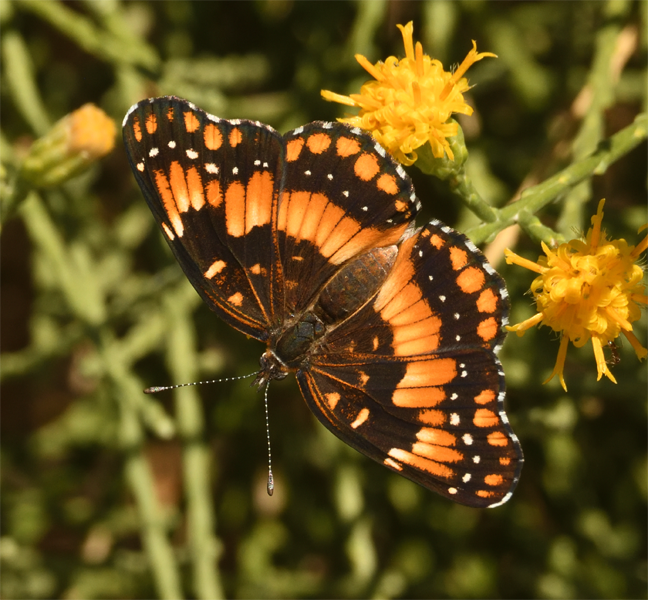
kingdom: Animalia
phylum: Arthropoda
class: Insecta
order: Lepidoptera
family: Nymphalidae
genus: Chlosyne
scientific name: Chlosyne californica
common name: California patch
